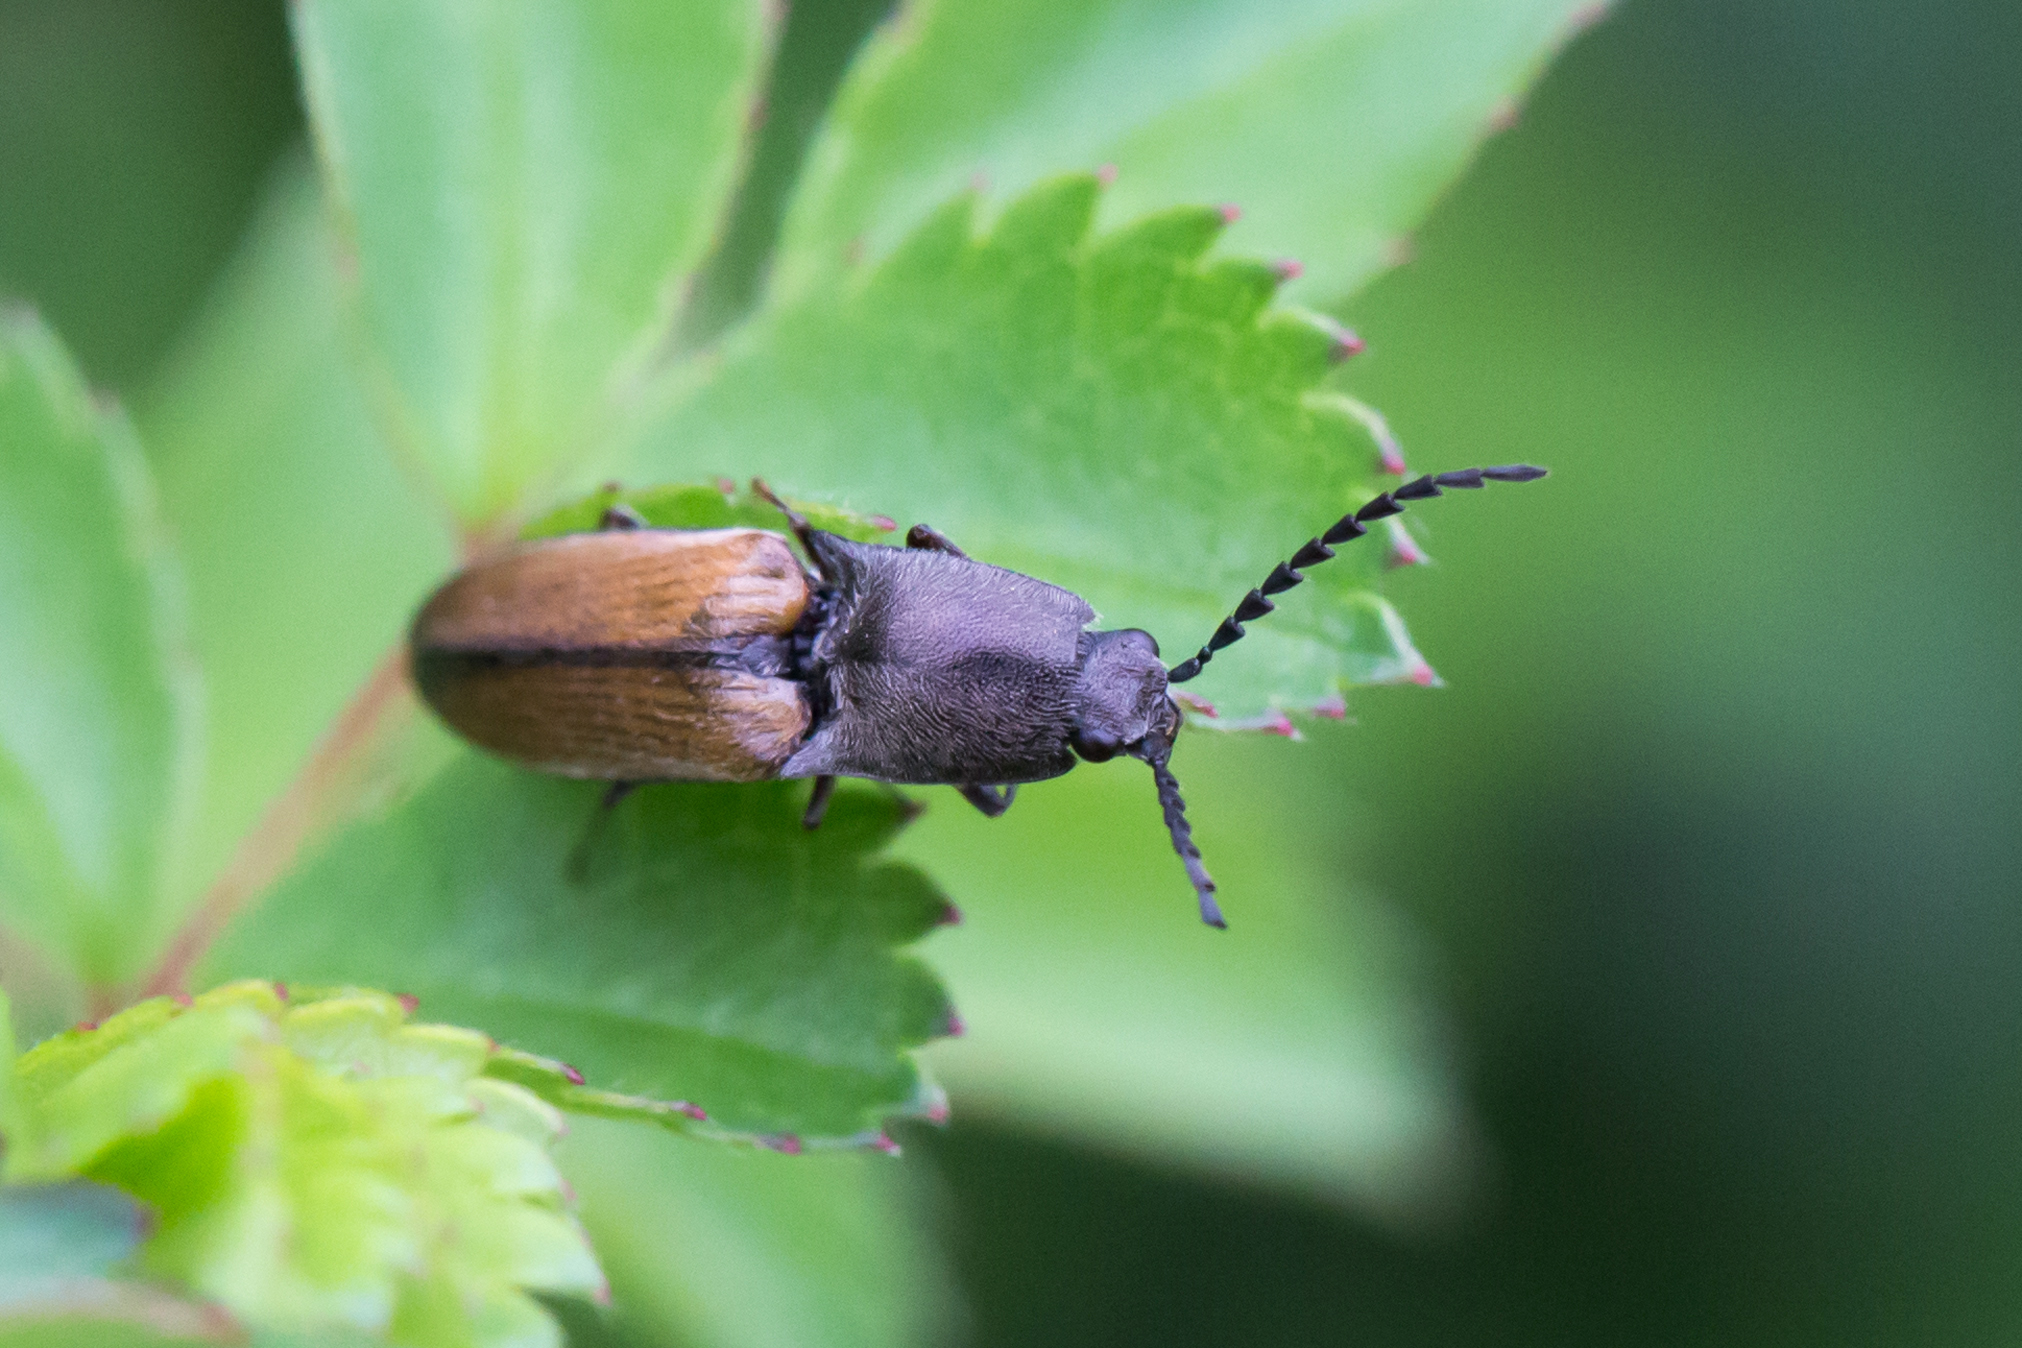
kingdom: Animalia
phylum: Arthropoda
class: Insecta
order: Coleoptera
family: Elateridae
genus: Corymbitodes
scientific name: Corymbitodes tarsalis
